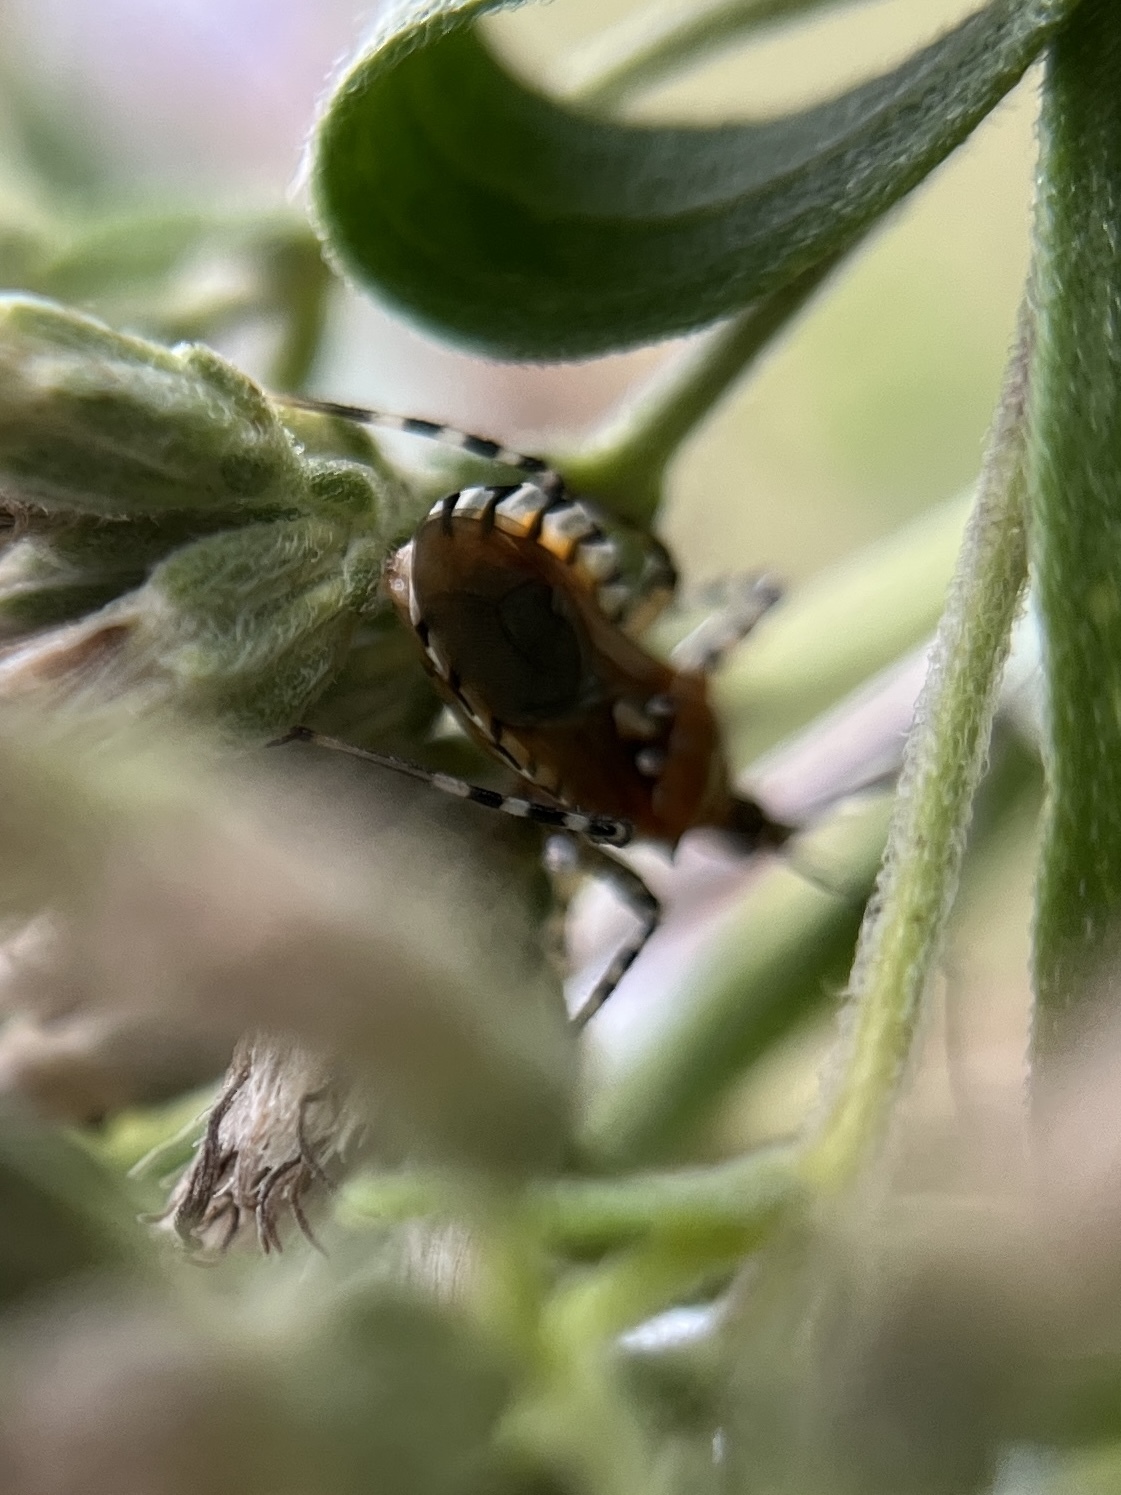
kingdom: Animalia
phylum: Arthropoda
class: Insecta
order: Hemiptera
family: Reduviidae
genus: Pselliopus
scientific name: Pselliopus cinctus
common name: Ringed assassin bug
